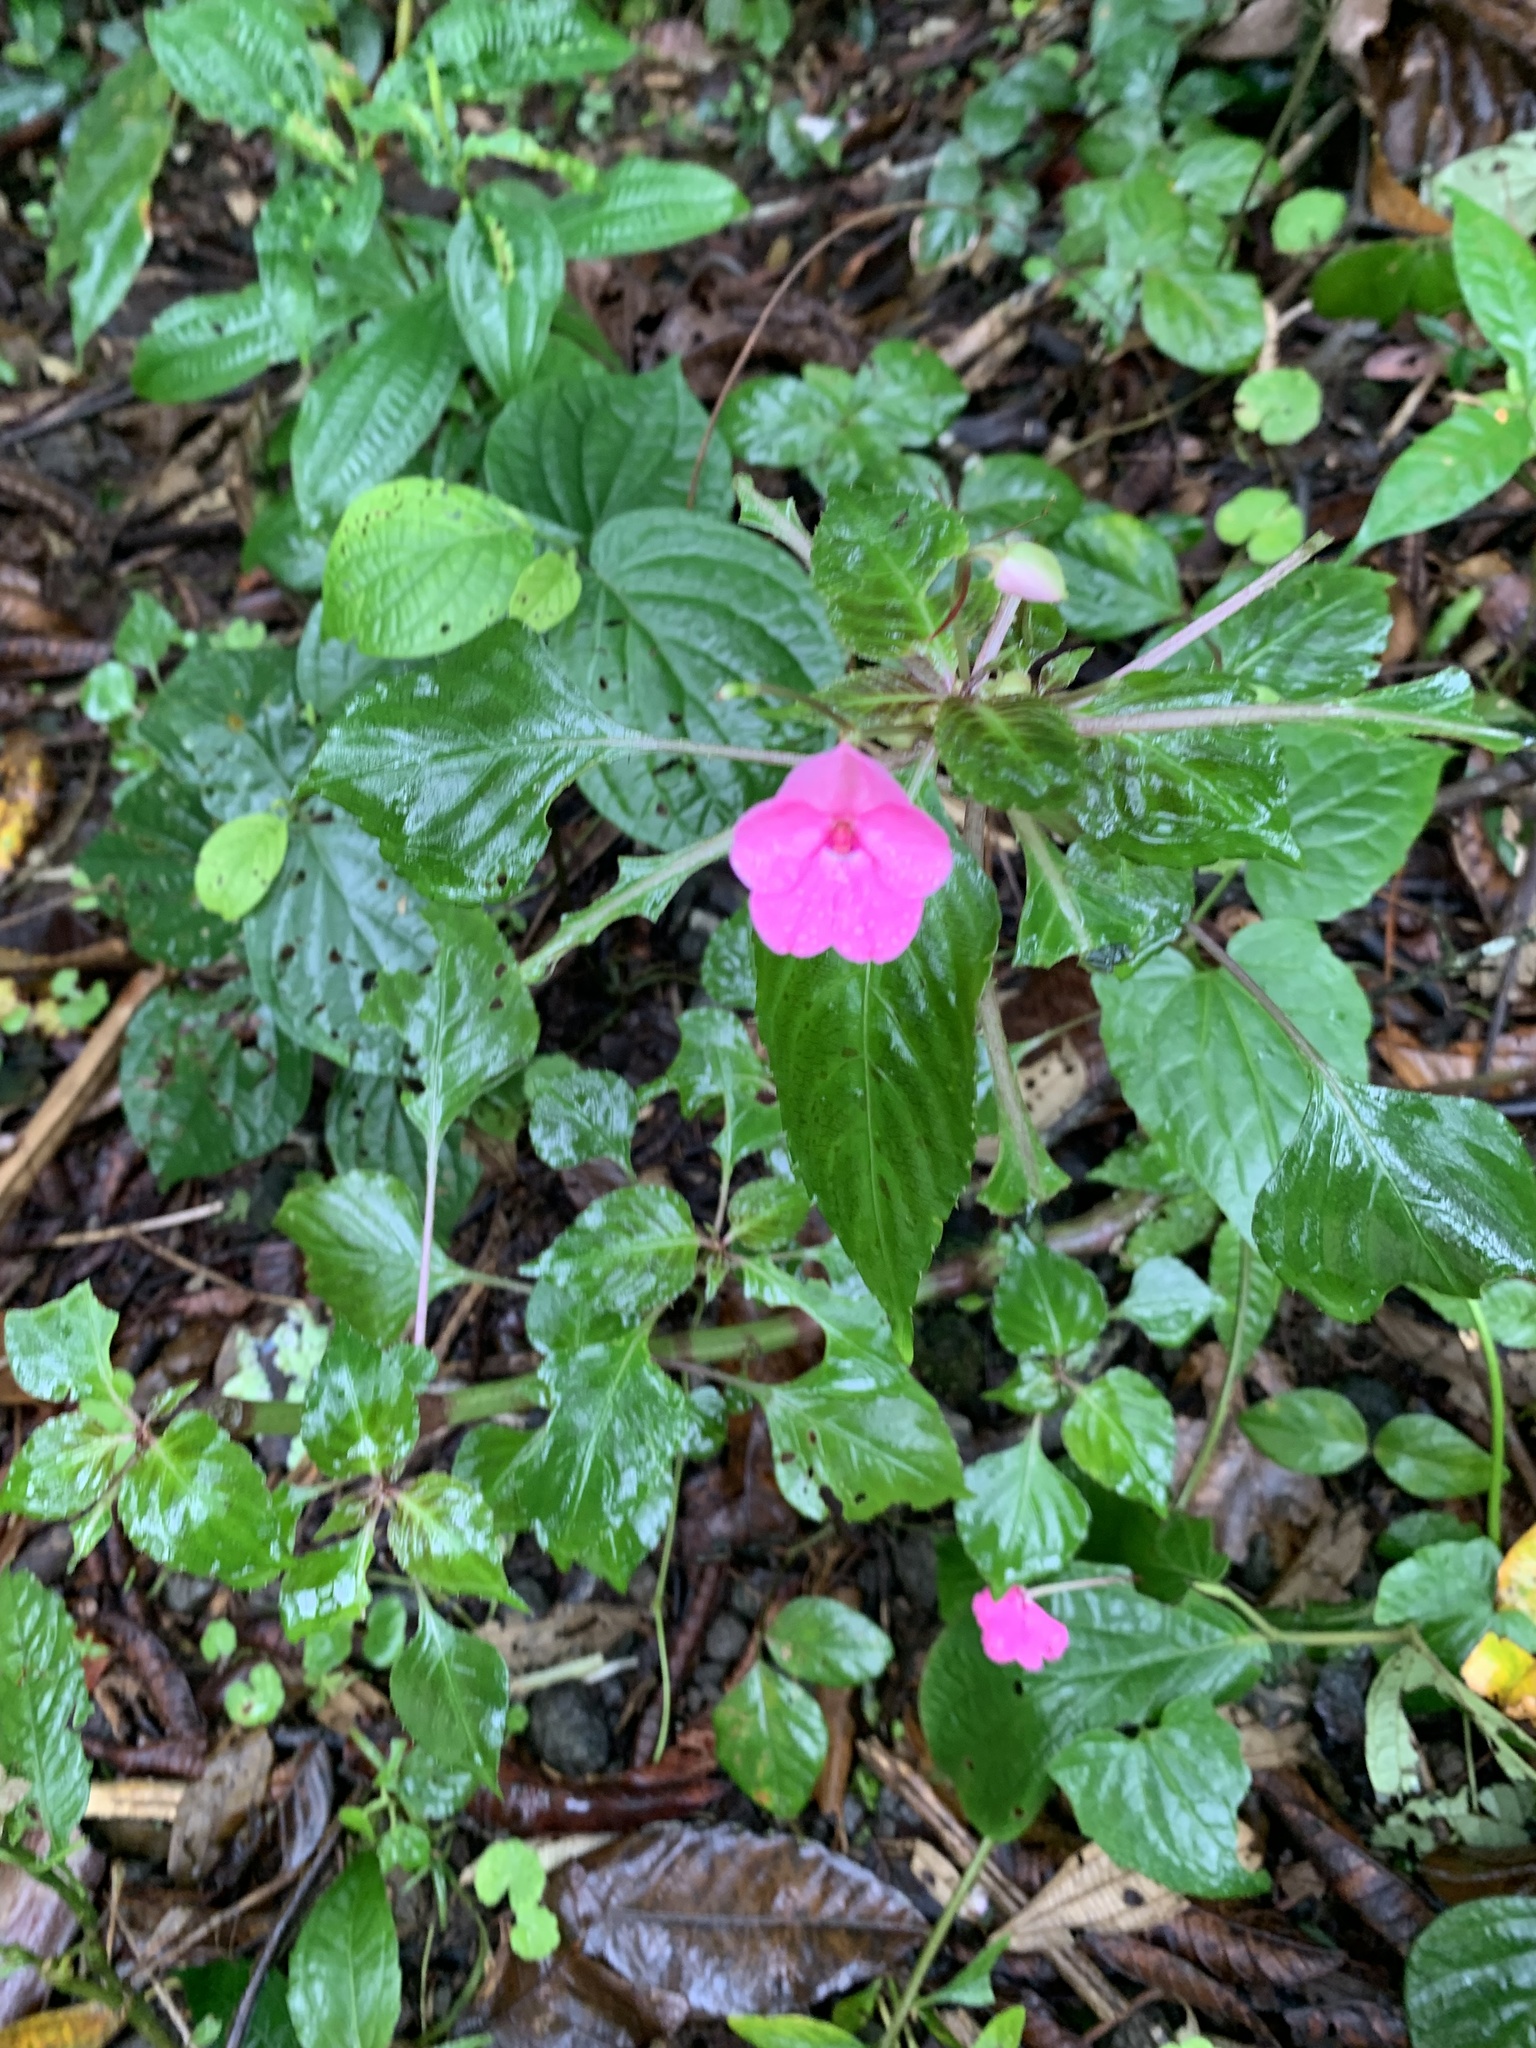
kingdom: Plantae
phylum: Tracheophyta
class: Magnoliopsida
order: Ericales
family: Balsaminaceae
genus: Impatiens
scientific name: Impatiens walleriana
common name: Buzzy lizzy
